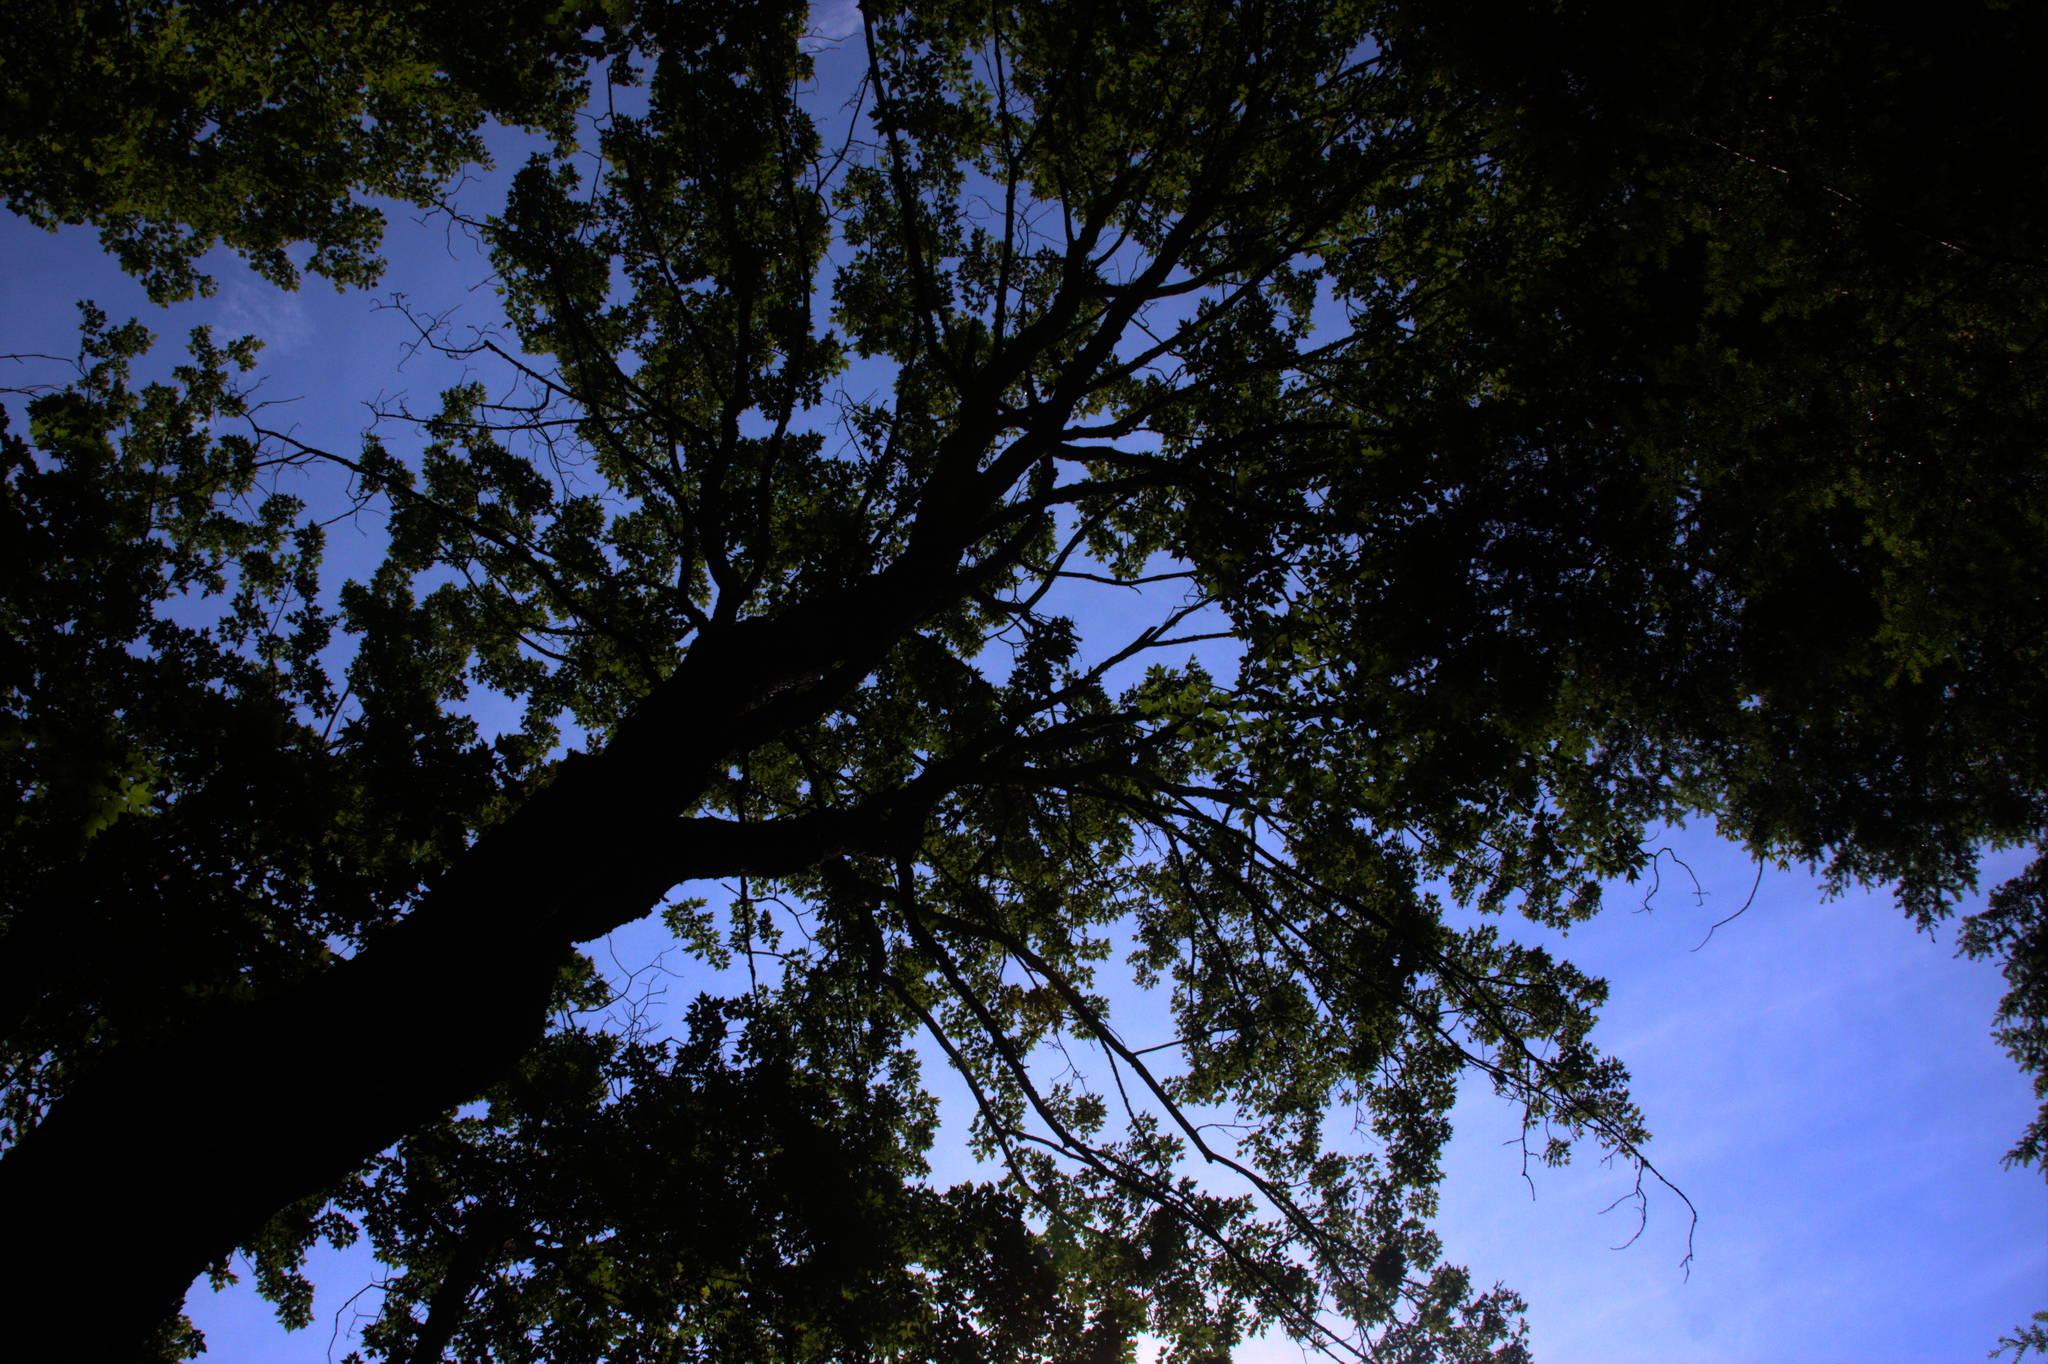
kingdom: Plantae
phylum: Tracheophyta
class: Magnoliopsida
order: Sapindales
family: Sapindaceae
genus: Acer
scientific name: Acer rubrum
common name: Red maple
